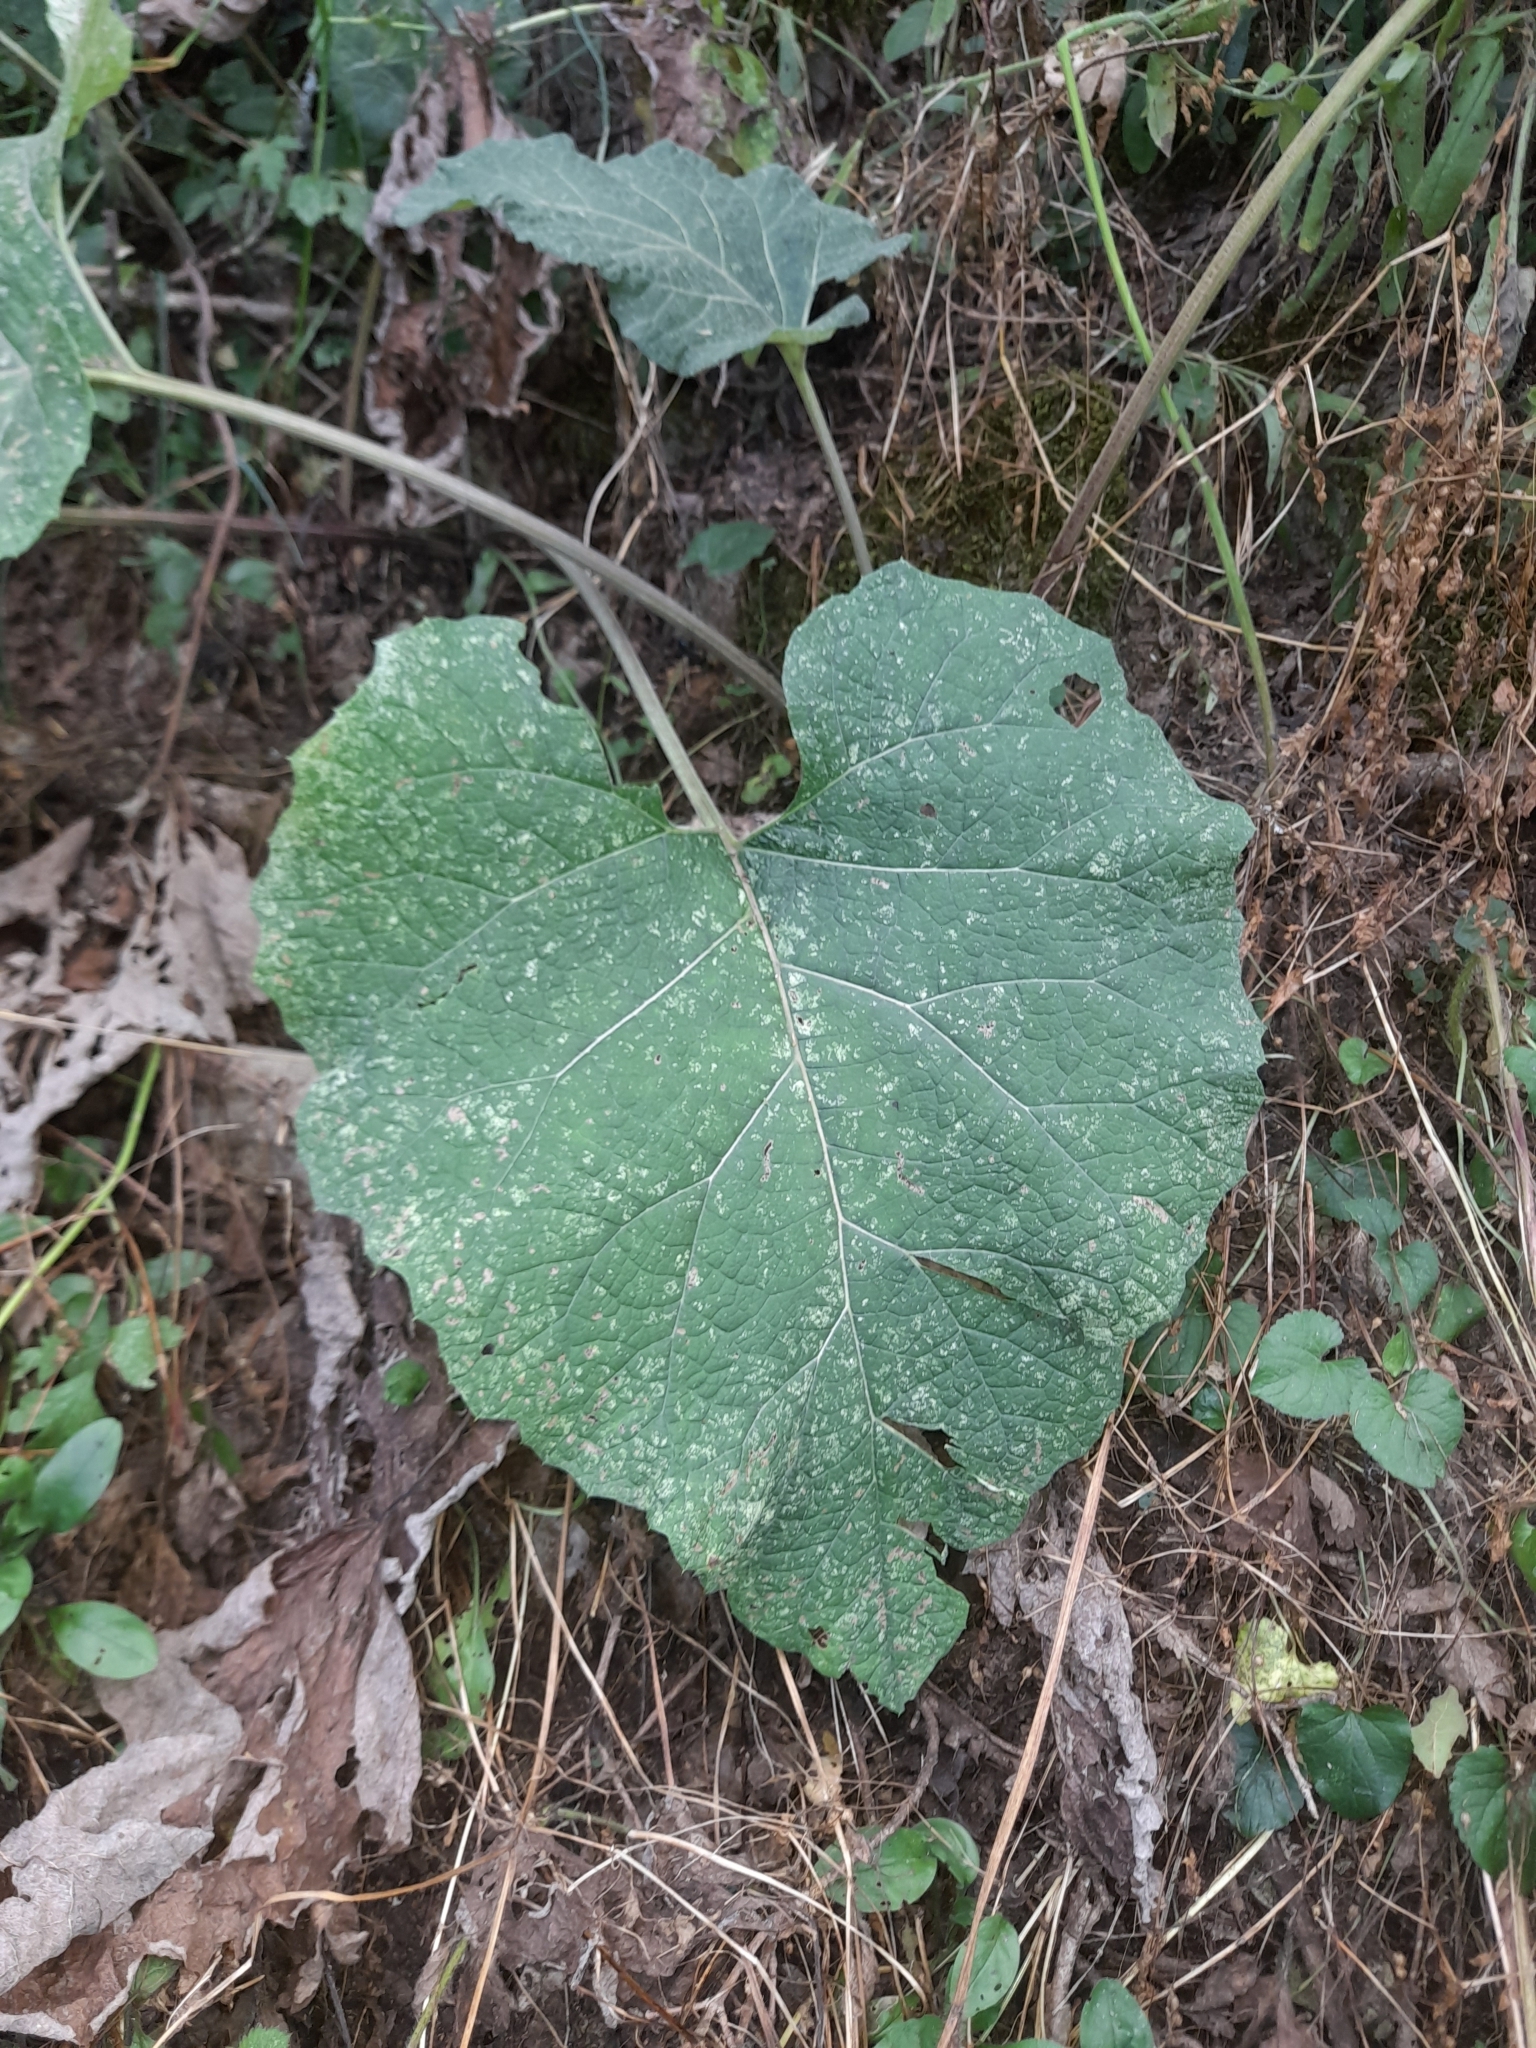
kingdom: Plantae
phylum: Tracheophyta
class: Magnoliopsida
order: Asterales
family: Asteraceae
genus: Arctium
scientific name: Arctium nemorosum
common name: Wood burdock
